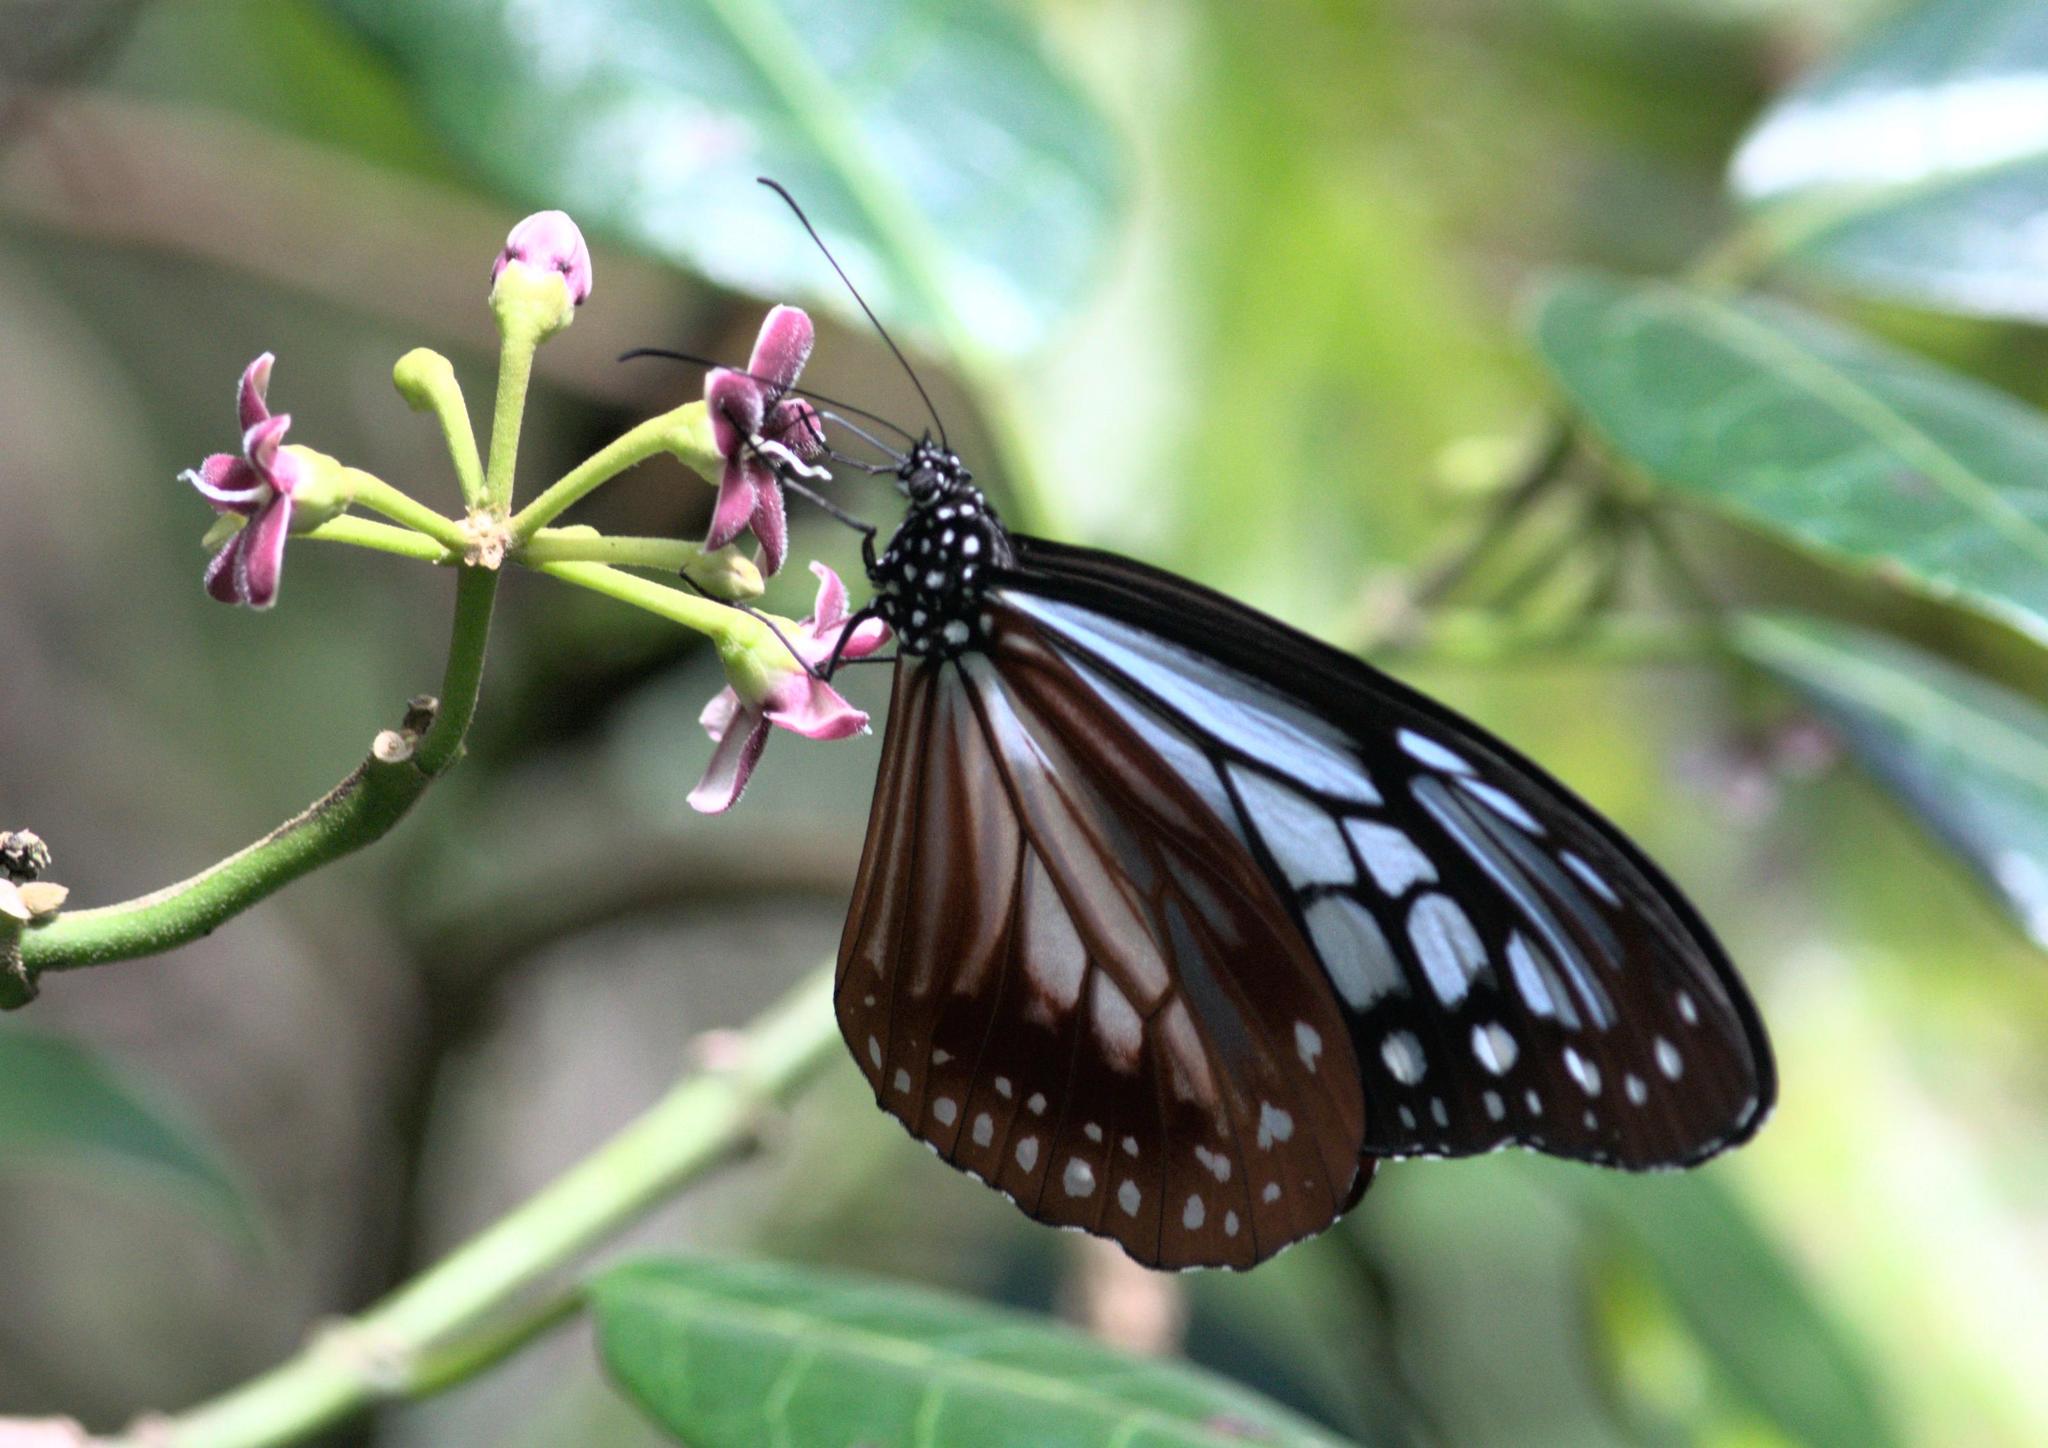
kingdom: Animalia
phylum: Arthropoda
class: Insecta
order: Lepidoptera
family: Nymphalidae
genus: Parantica
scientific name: Parantica sita
